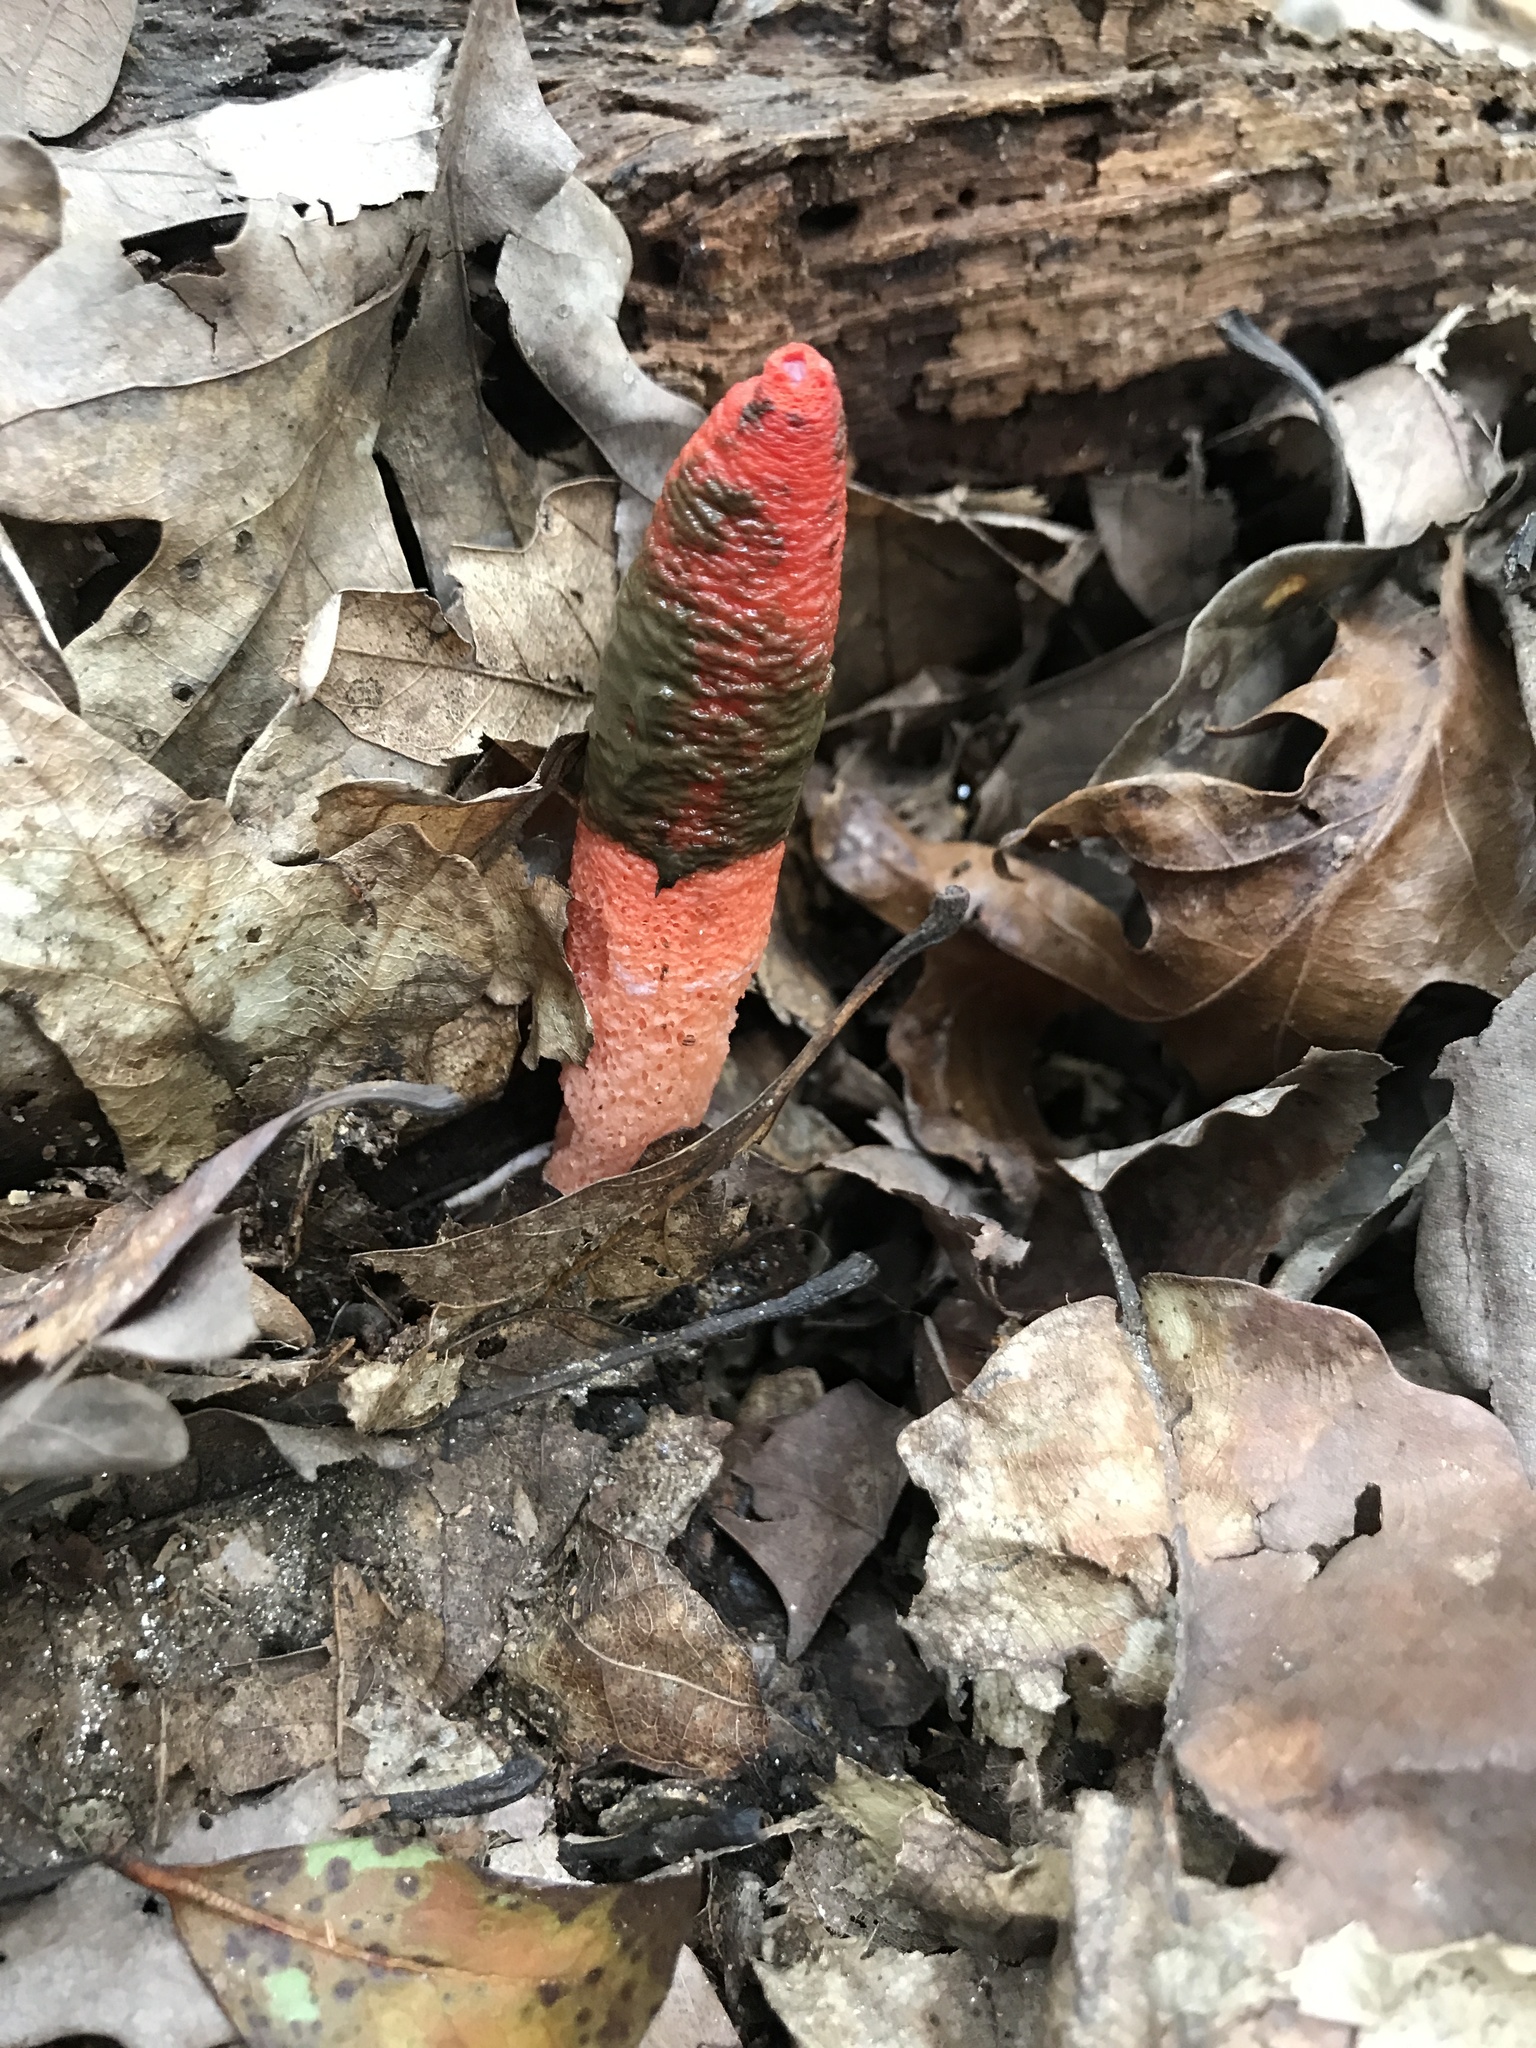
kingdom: Fungi
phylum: Basidiomycota
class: Agaricomycetes
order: Phallales
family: Phallaceae
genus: Mutinus
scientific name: Mutinus elegans
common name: Devil's dipstick
